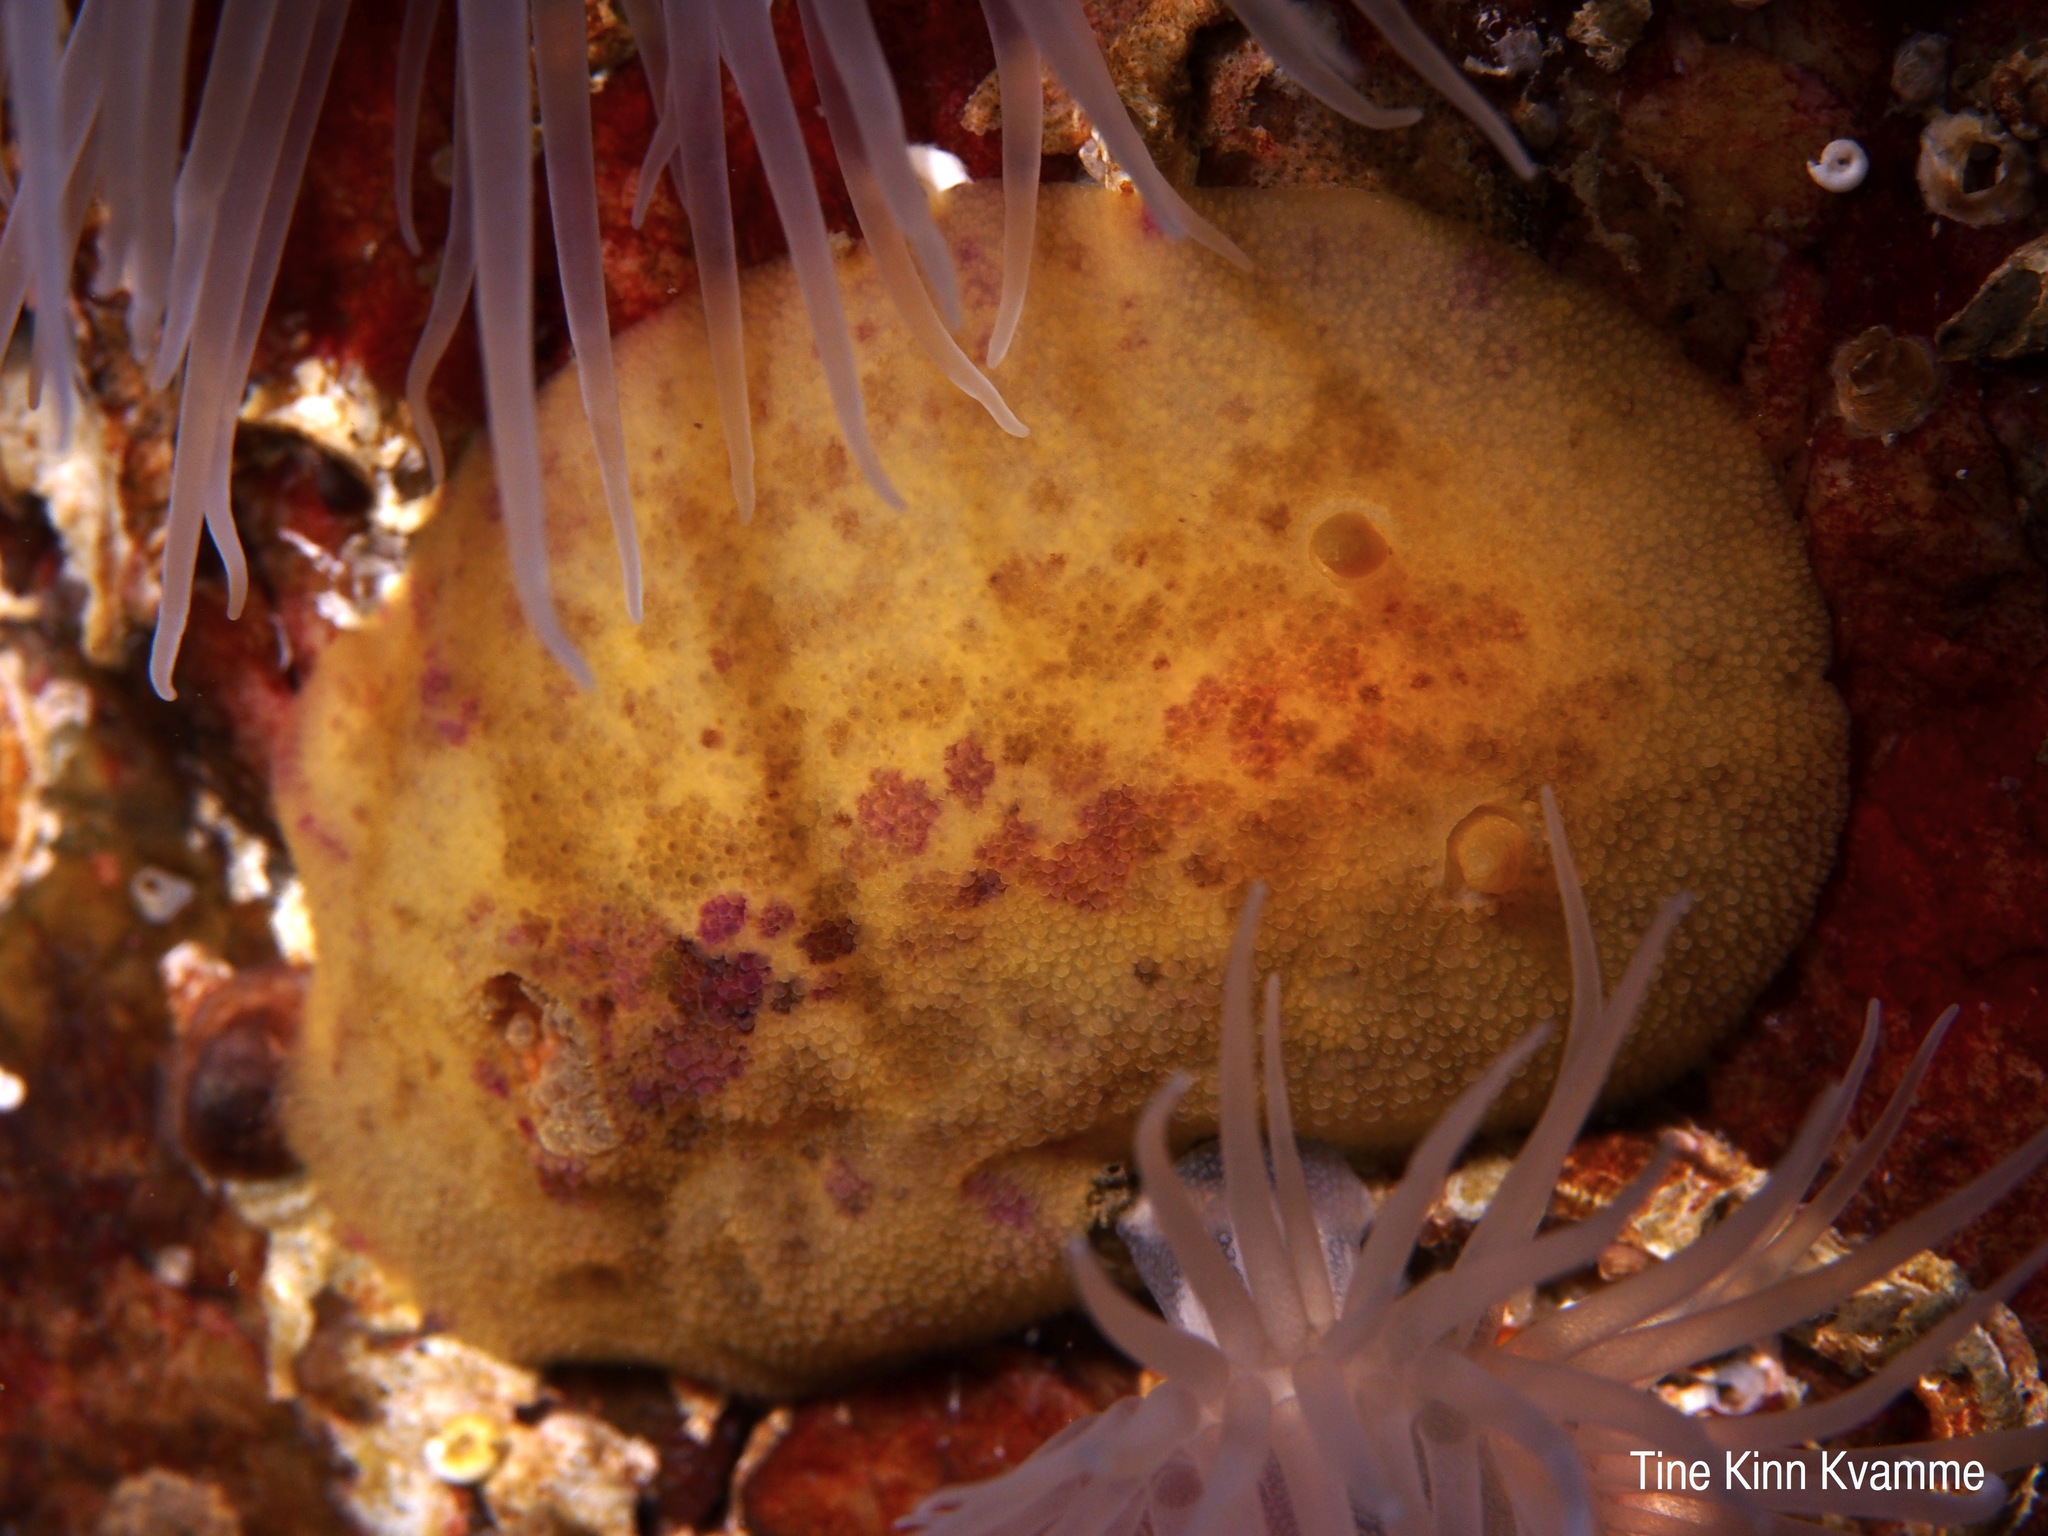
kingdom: Animalia
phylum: Mollusca
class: Gastropoda
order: Nudibranchia
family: Dorididae
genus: Doris
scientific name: Doris pseudoargus
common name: Sea lemon
